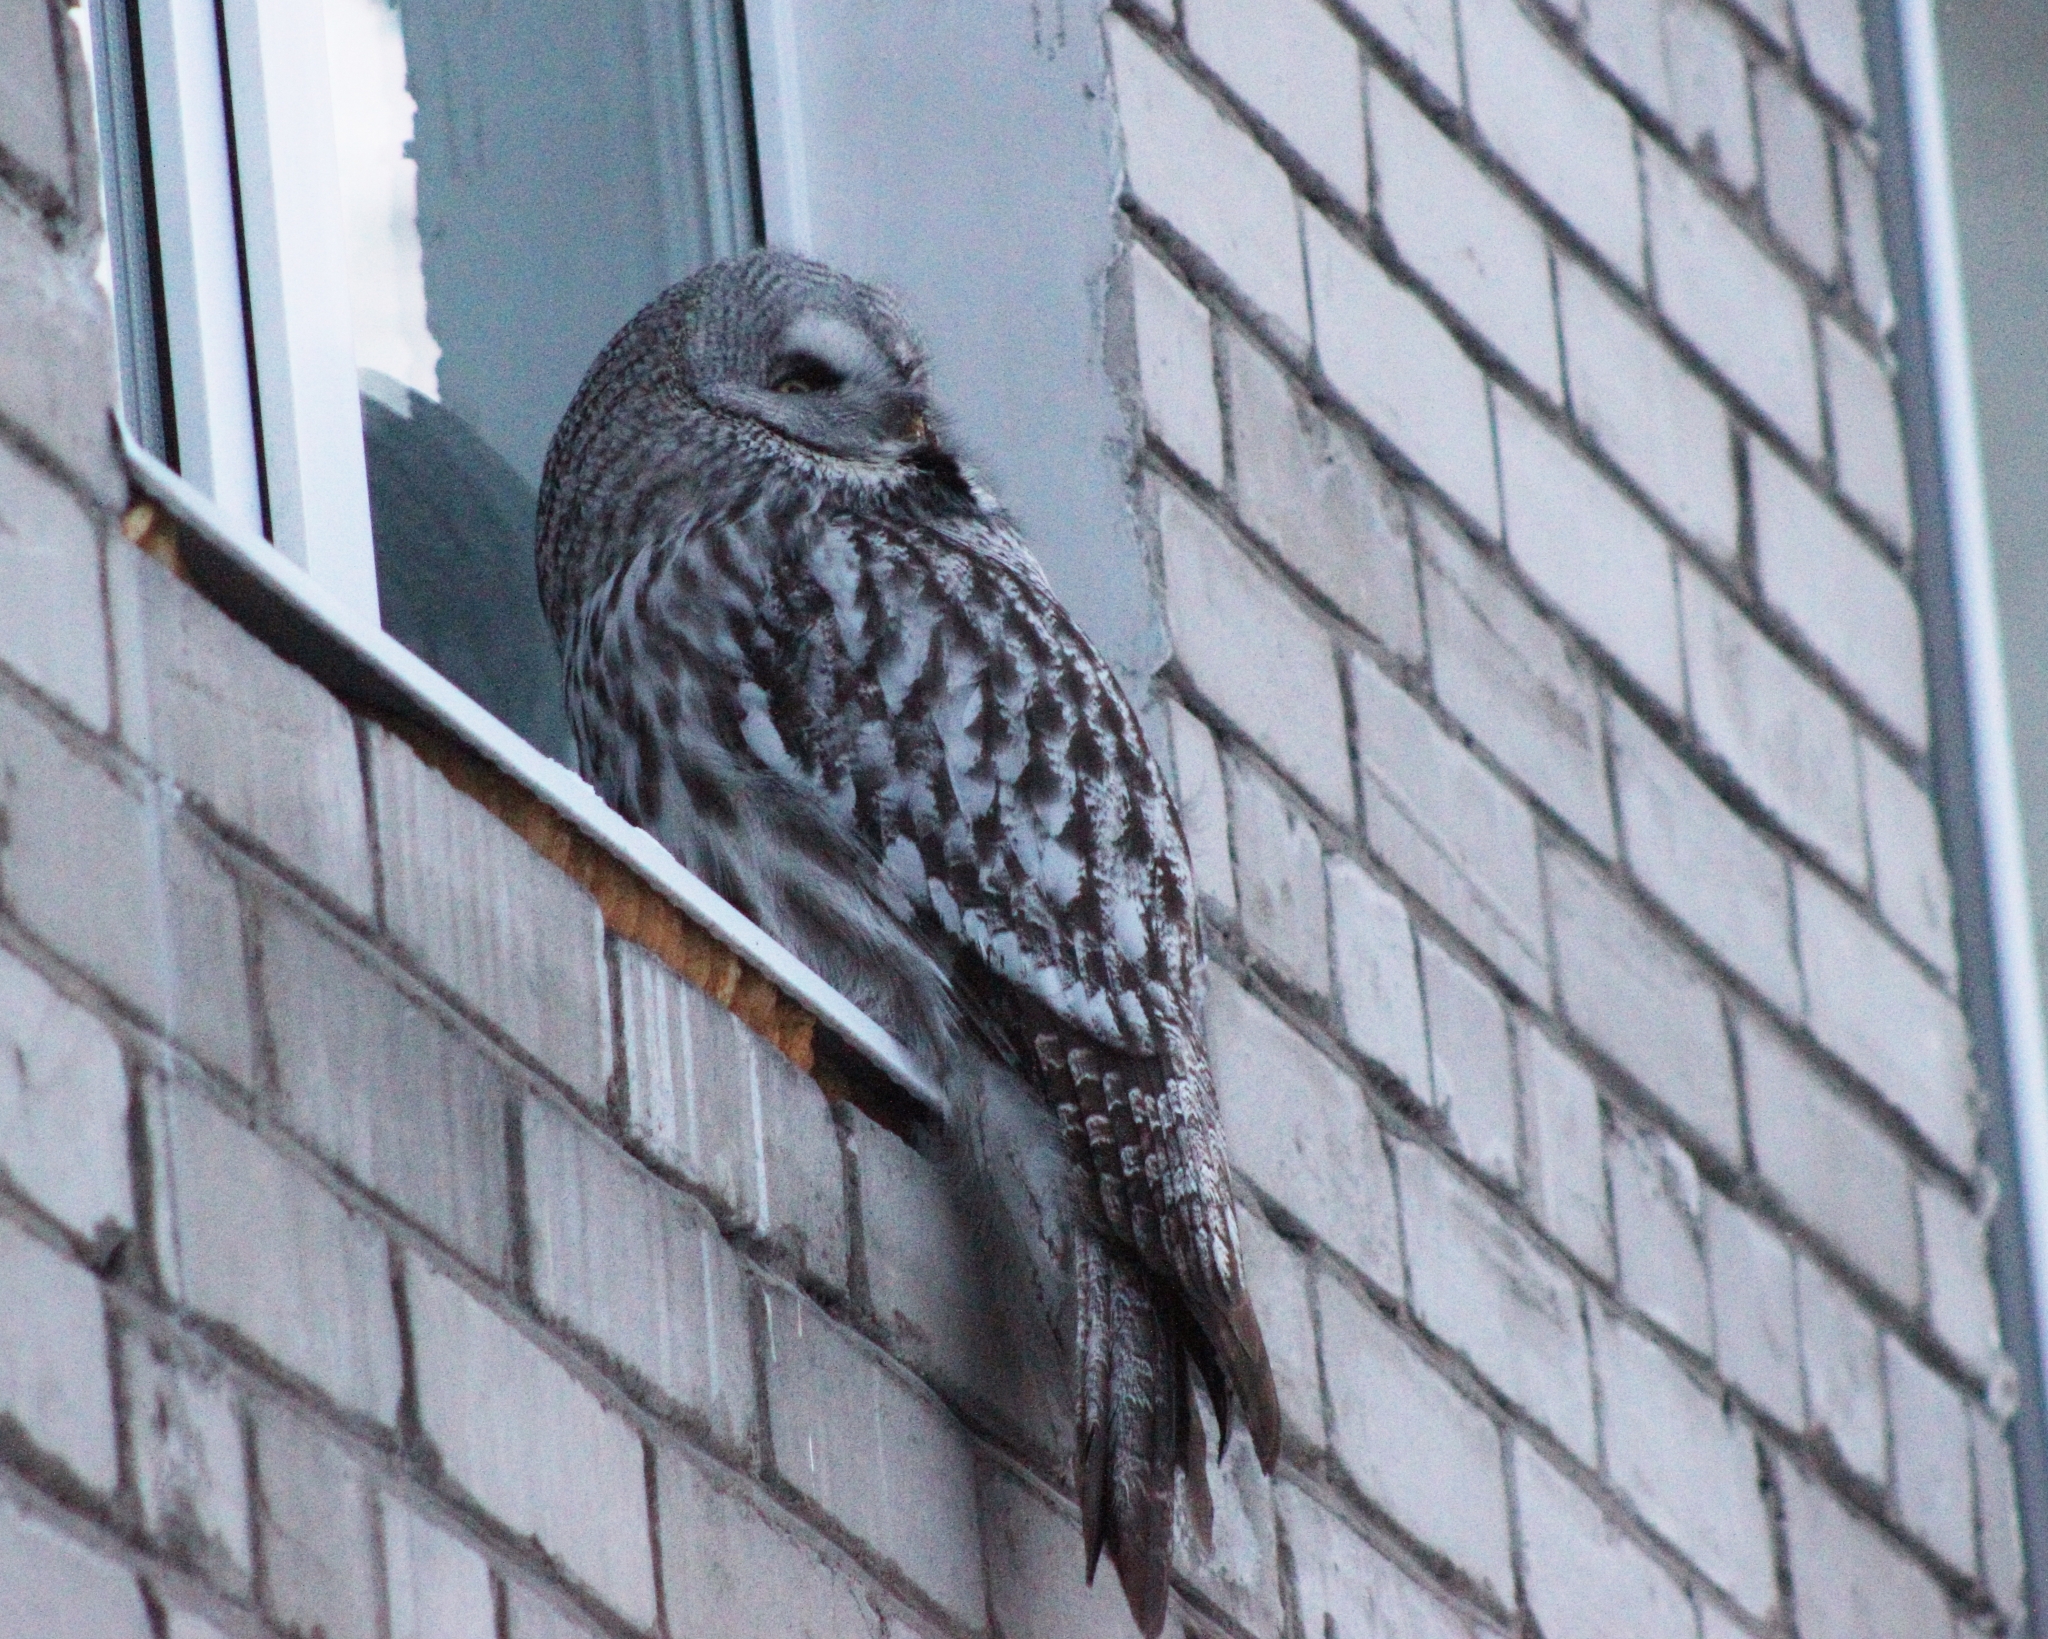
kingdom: Animalia
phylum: Chordata
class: Aves
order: Strigiformes
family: Strigidae
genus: Strix
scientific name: Strix nebulosa
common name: Great grey owl
